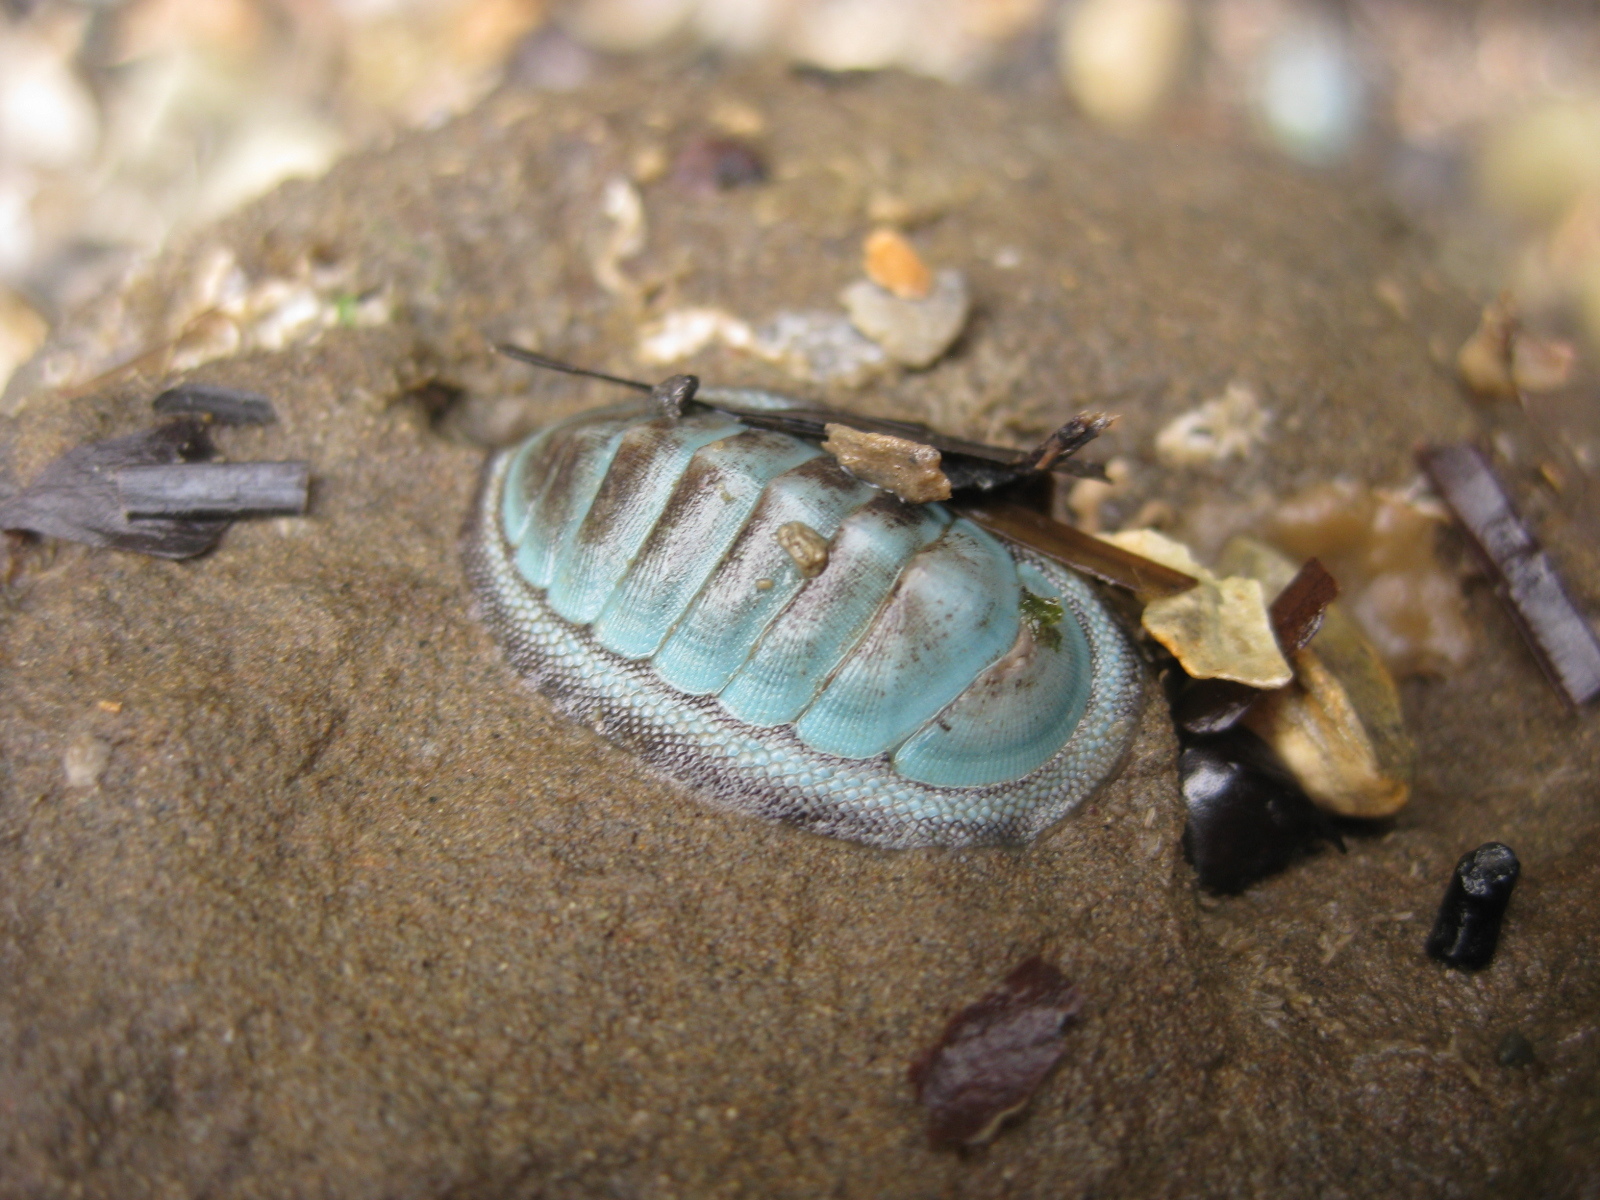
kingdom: Animalia
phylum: Mollusca
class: Polyplacophora
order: Chitonida
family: Chitonidae
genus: Chiton
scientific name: Chiton glaucus
